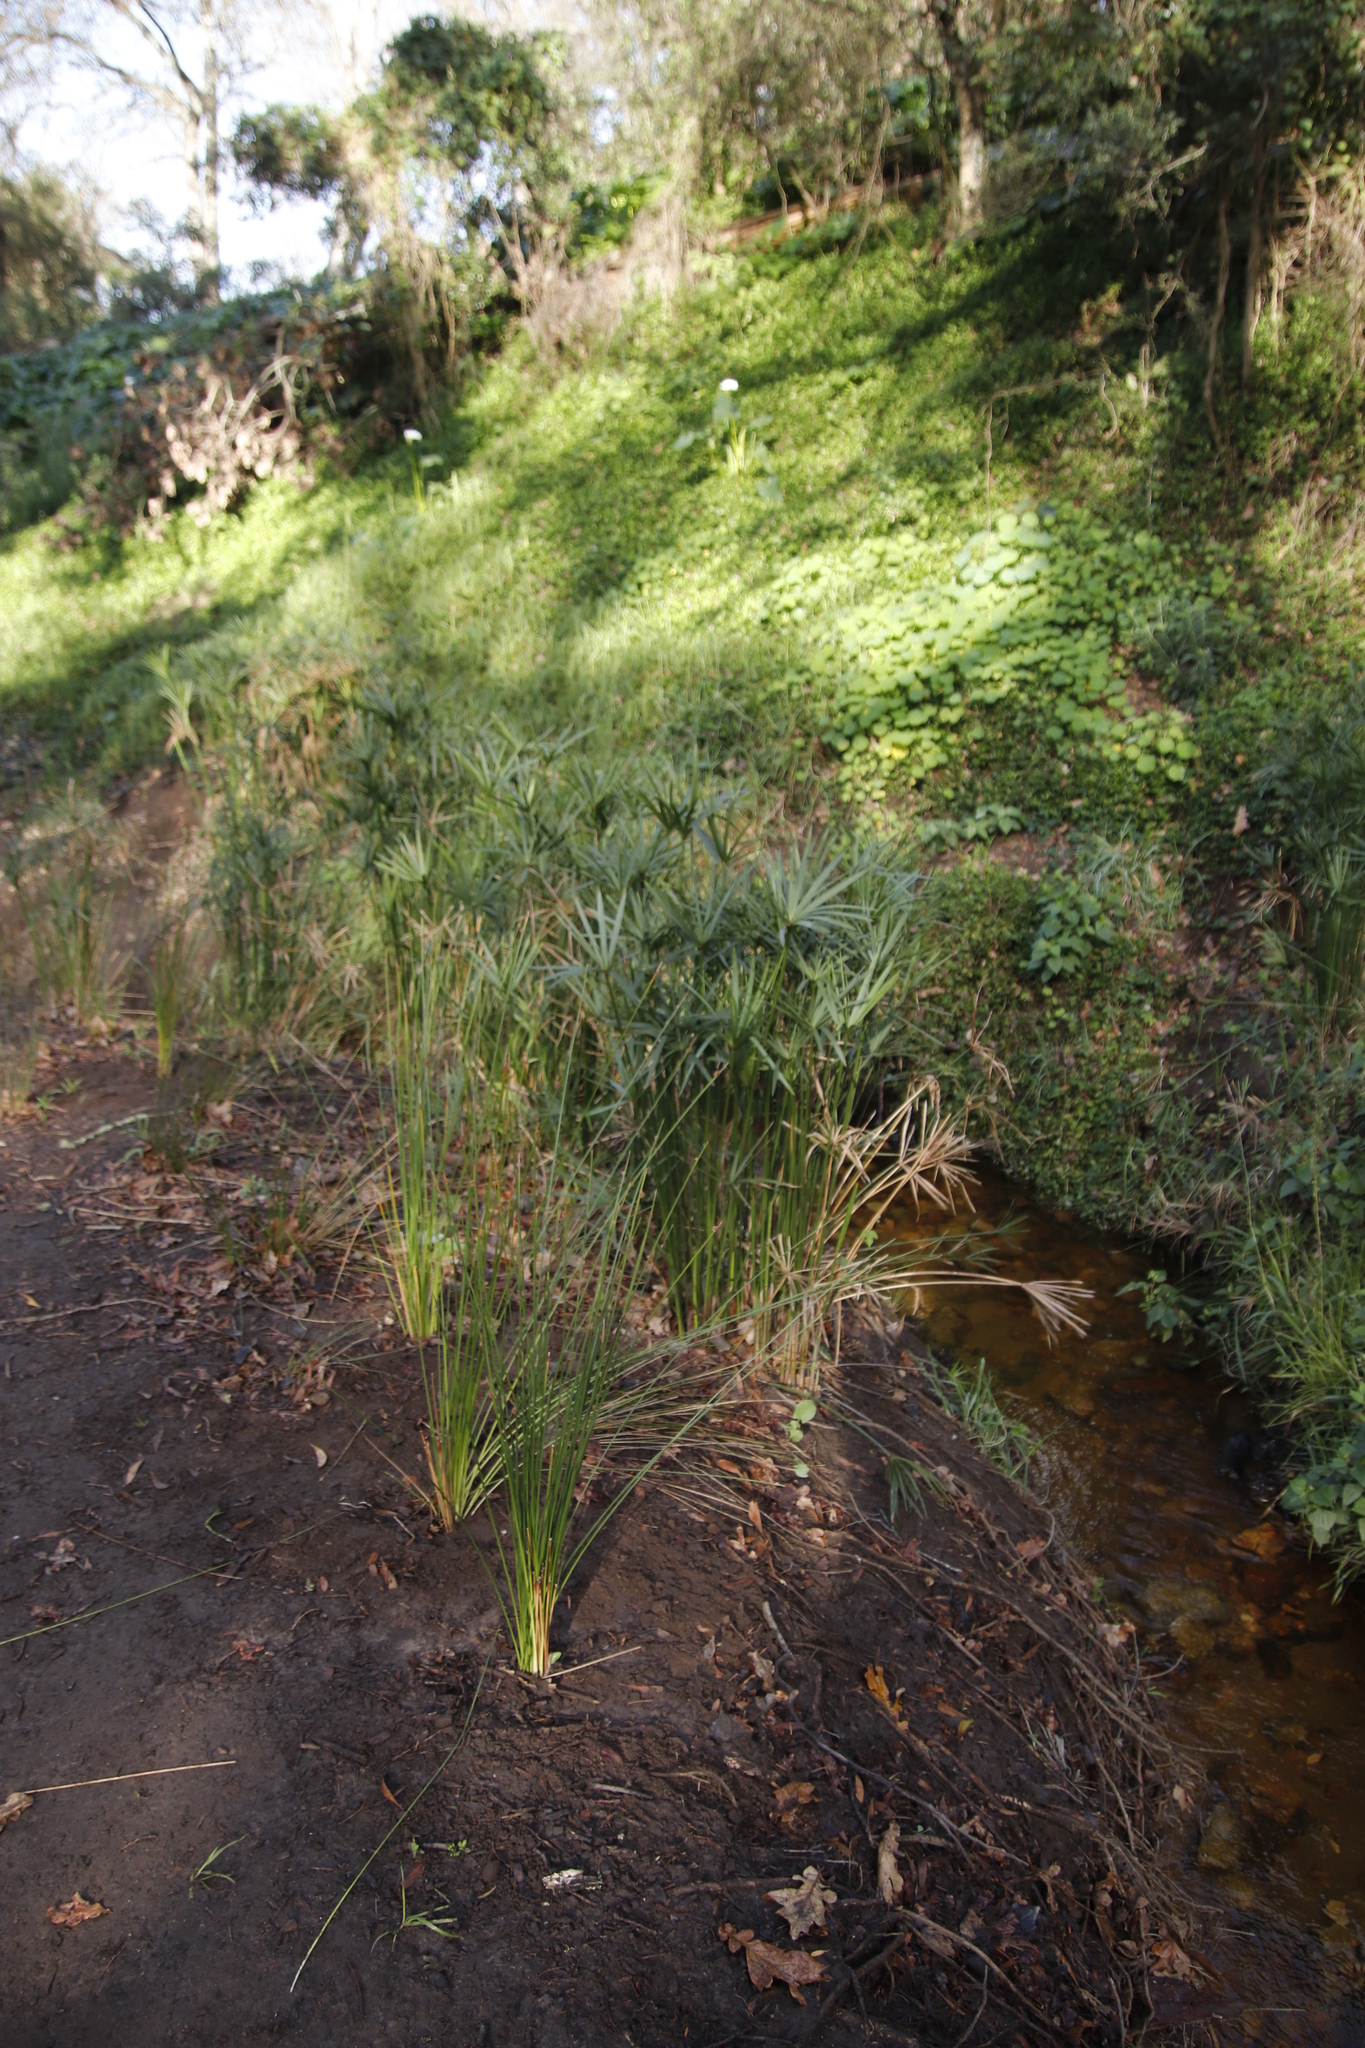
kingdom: Plantae
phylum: Tracheophyta
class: Liliopsida
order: Poales
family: Cyperaceae
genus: Cyperus
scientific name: Cyperus textilis
